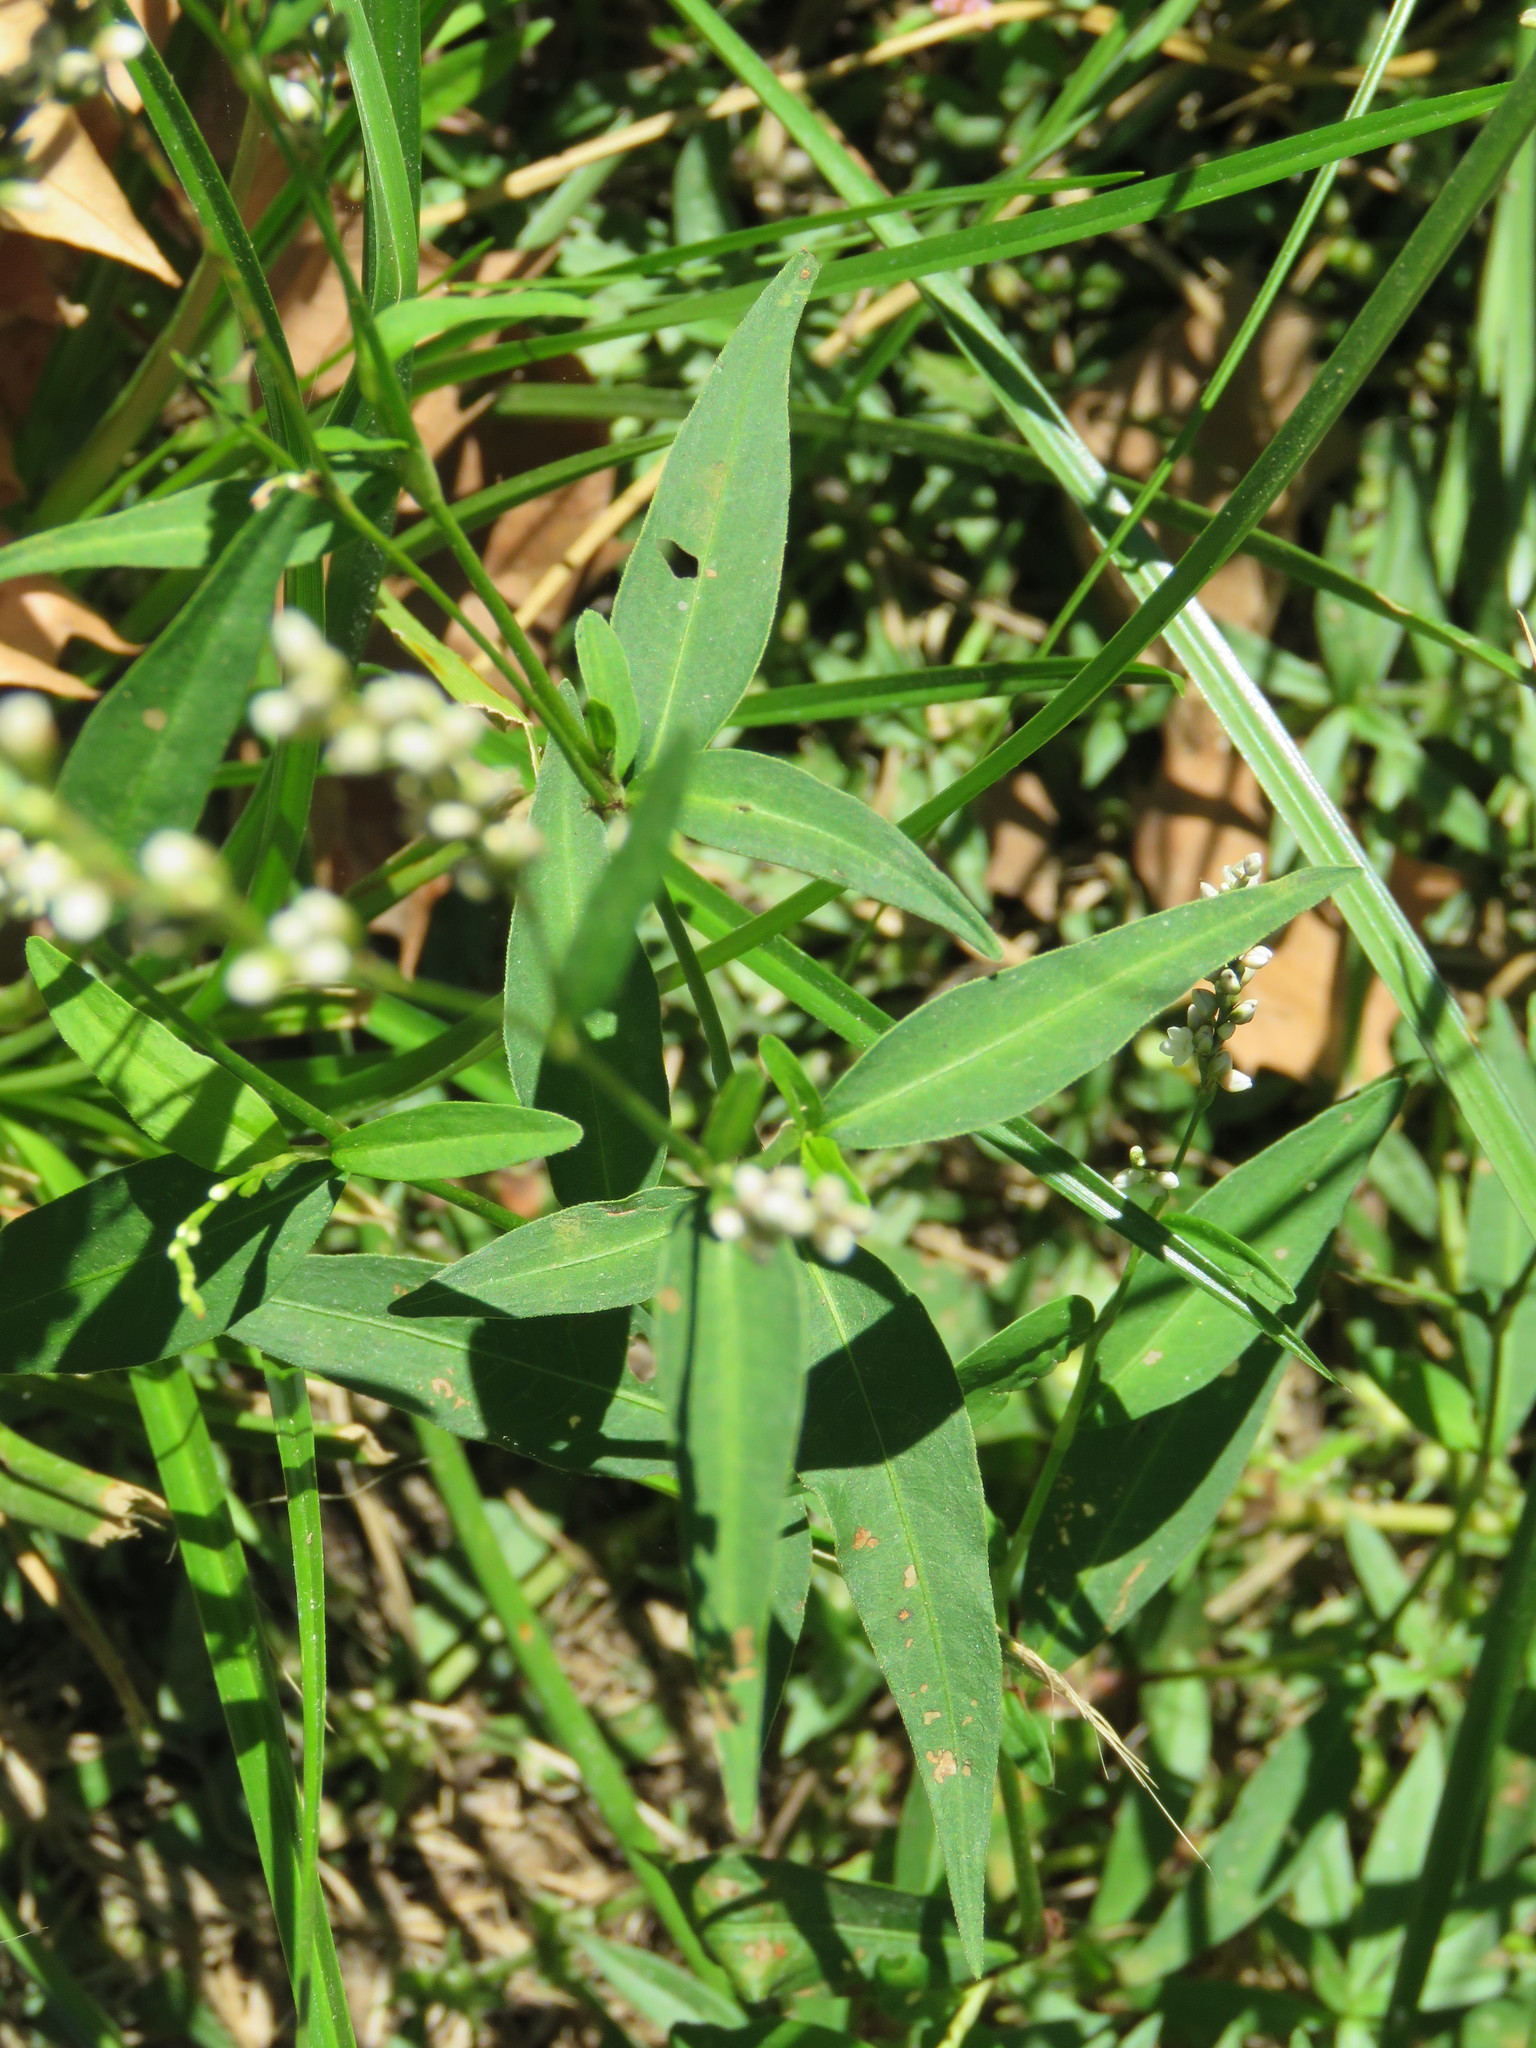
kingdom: Plantae
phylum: Tracheophyta
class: Magnoliopsida
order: Caryophyllales
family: Polygonaceae
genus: Persicaria
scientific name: Persicaria punctata
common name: Dotted smartweed
